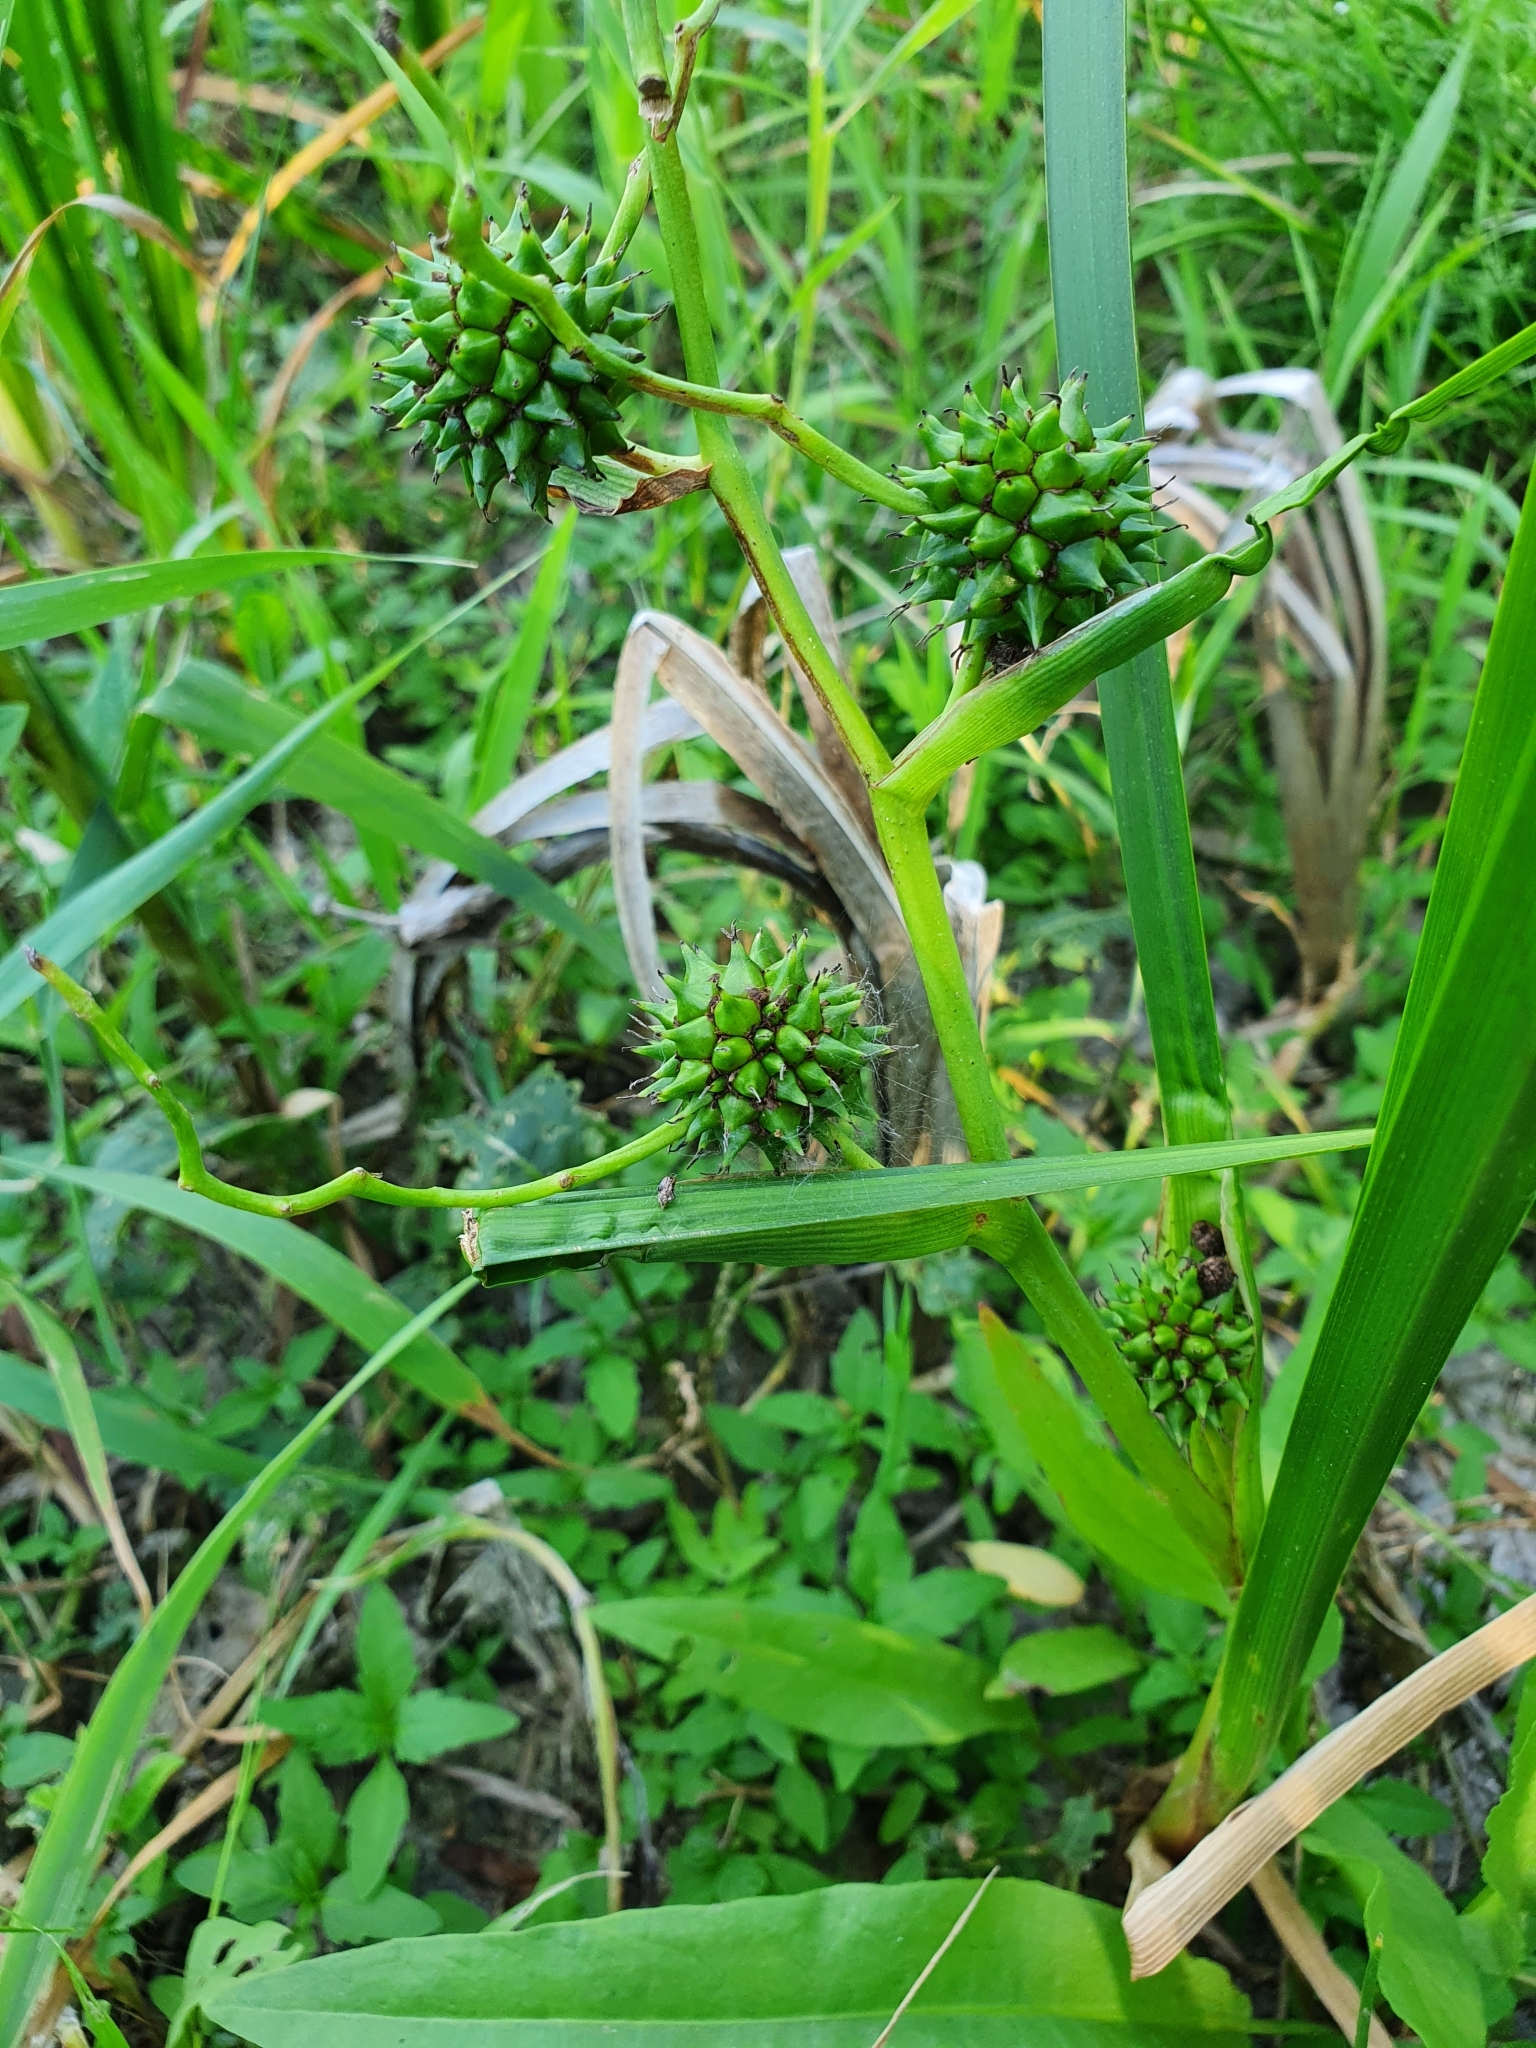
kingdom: Plantae
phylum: Tracheophyta
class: Liliopsida
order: Poales
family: Typhaceae
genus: Sparganium
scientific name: Sparganium erectum
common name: Branched bur-reed
